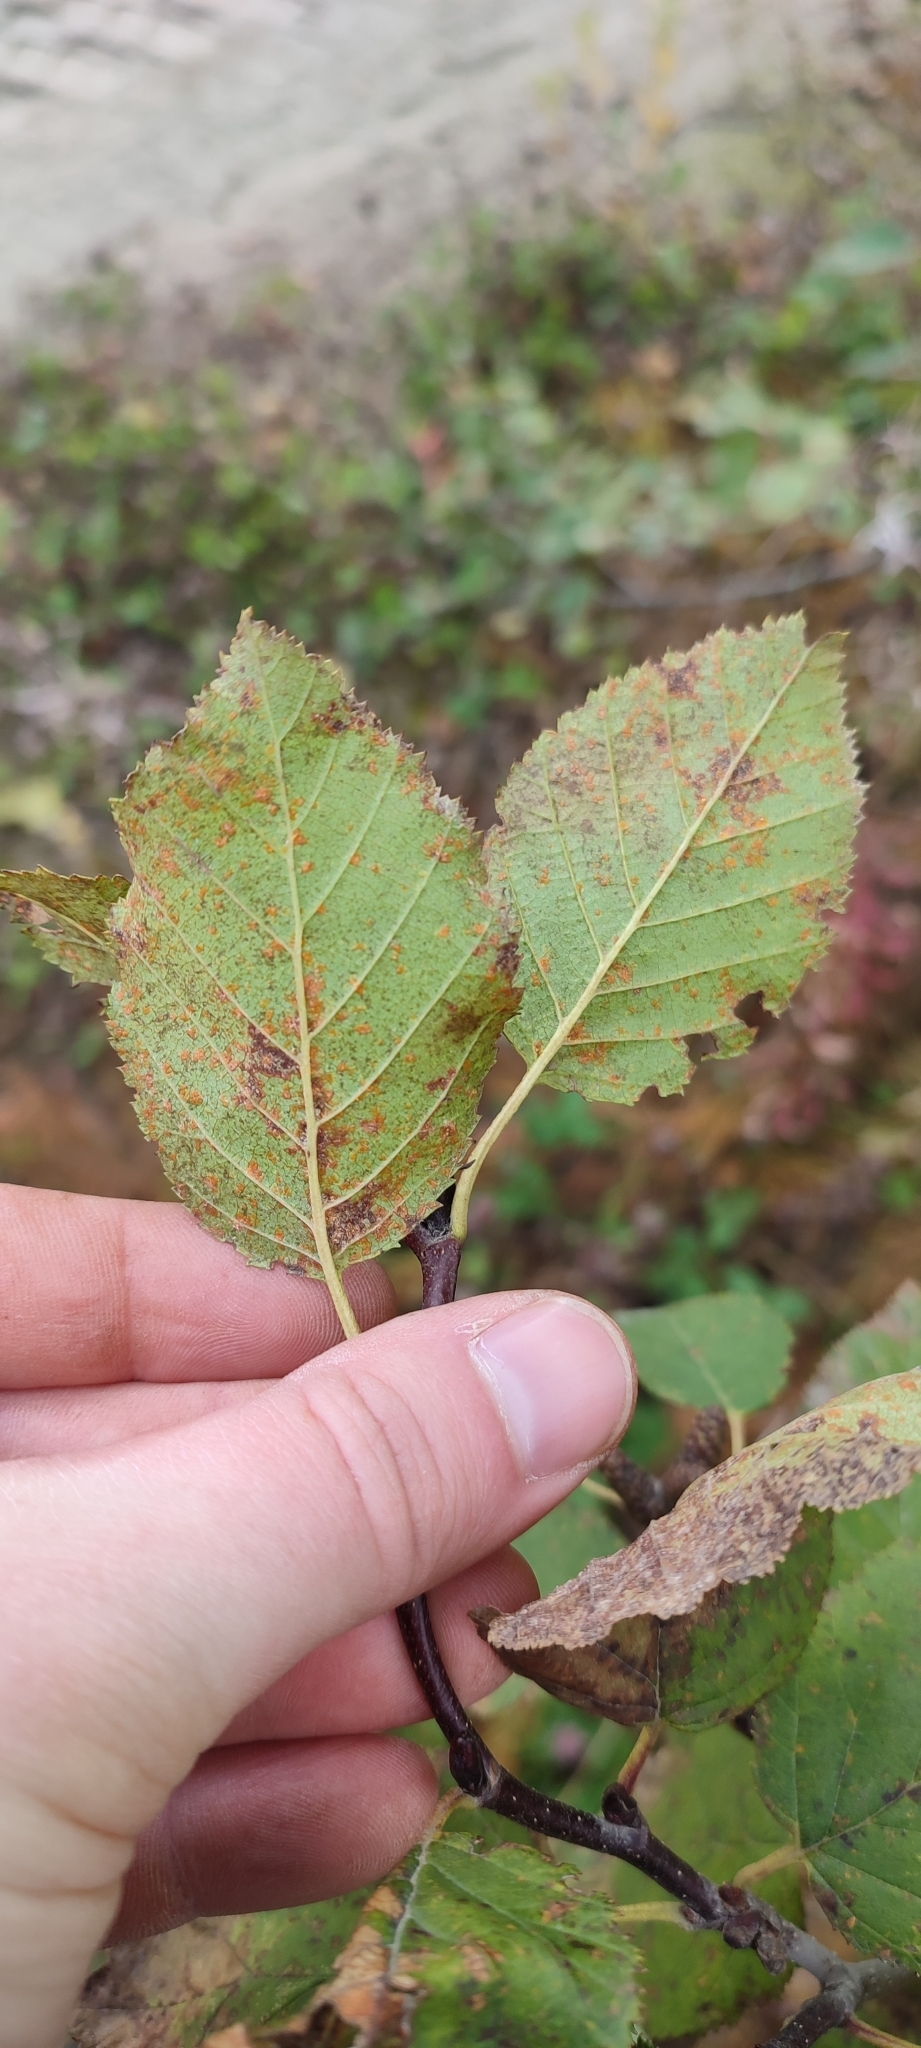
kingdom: Plantae
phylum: Tracheophyta
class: Magnoliopsida
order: Fagales
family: Betulaceae
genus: Alnus
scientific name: Alnus alnobetula
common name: Green alder
